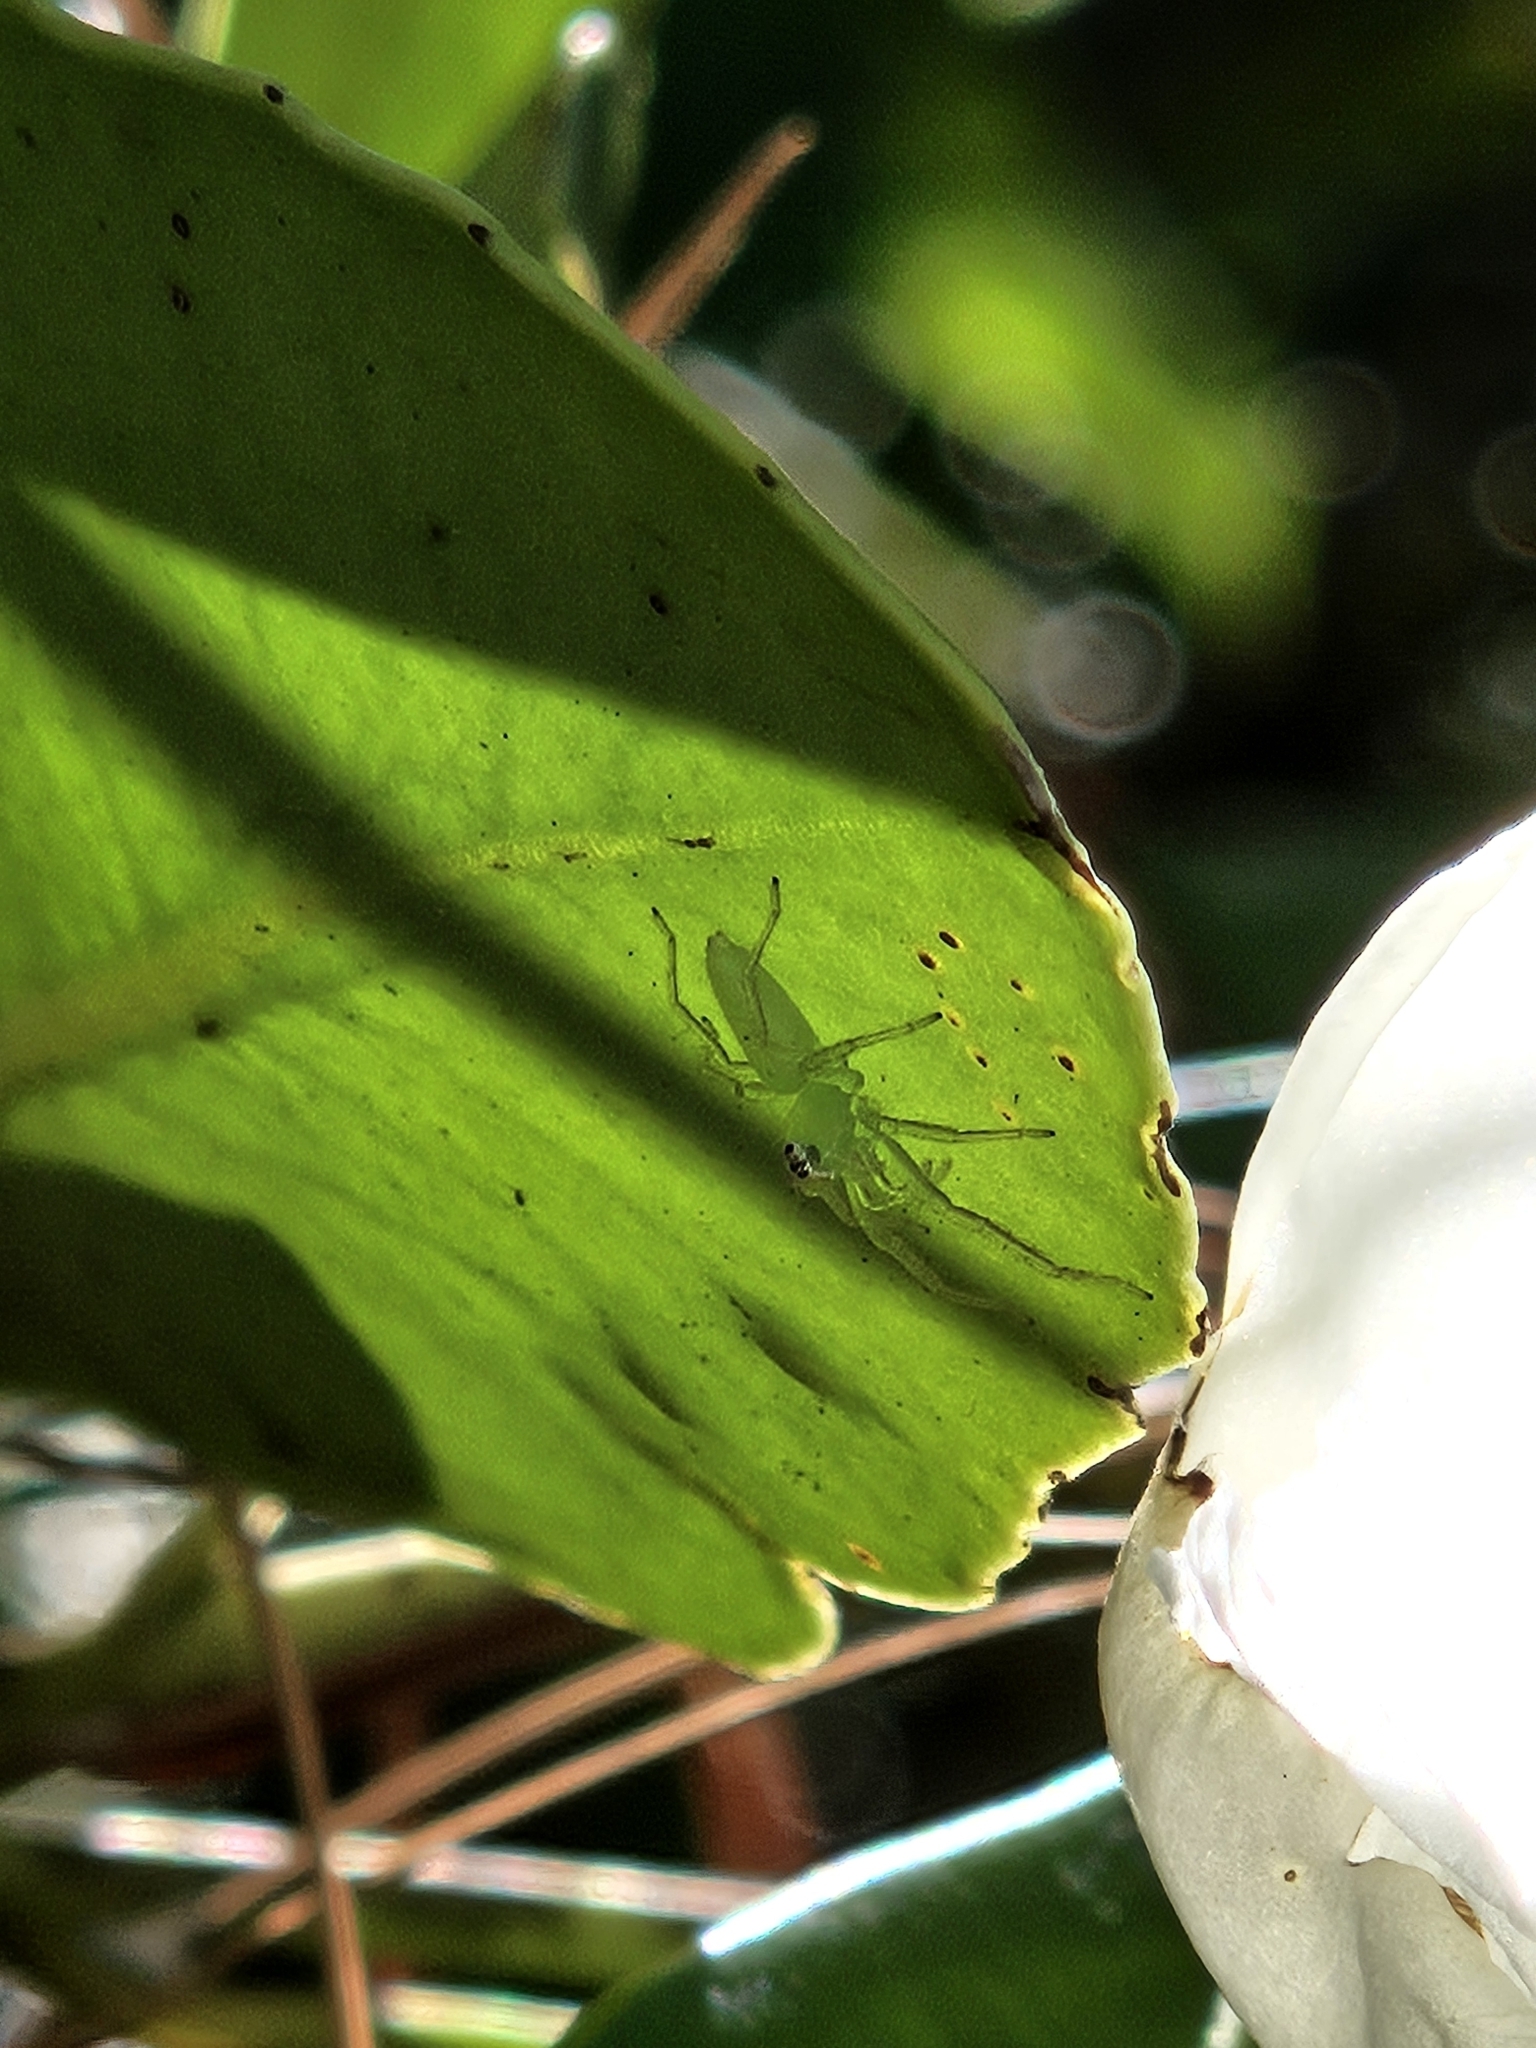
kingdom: Animalia
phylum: Arthropoda
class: Arachnida
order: Araneae
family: Salticidae
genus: Lyssomanes
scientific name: Lyssomanes viridis
